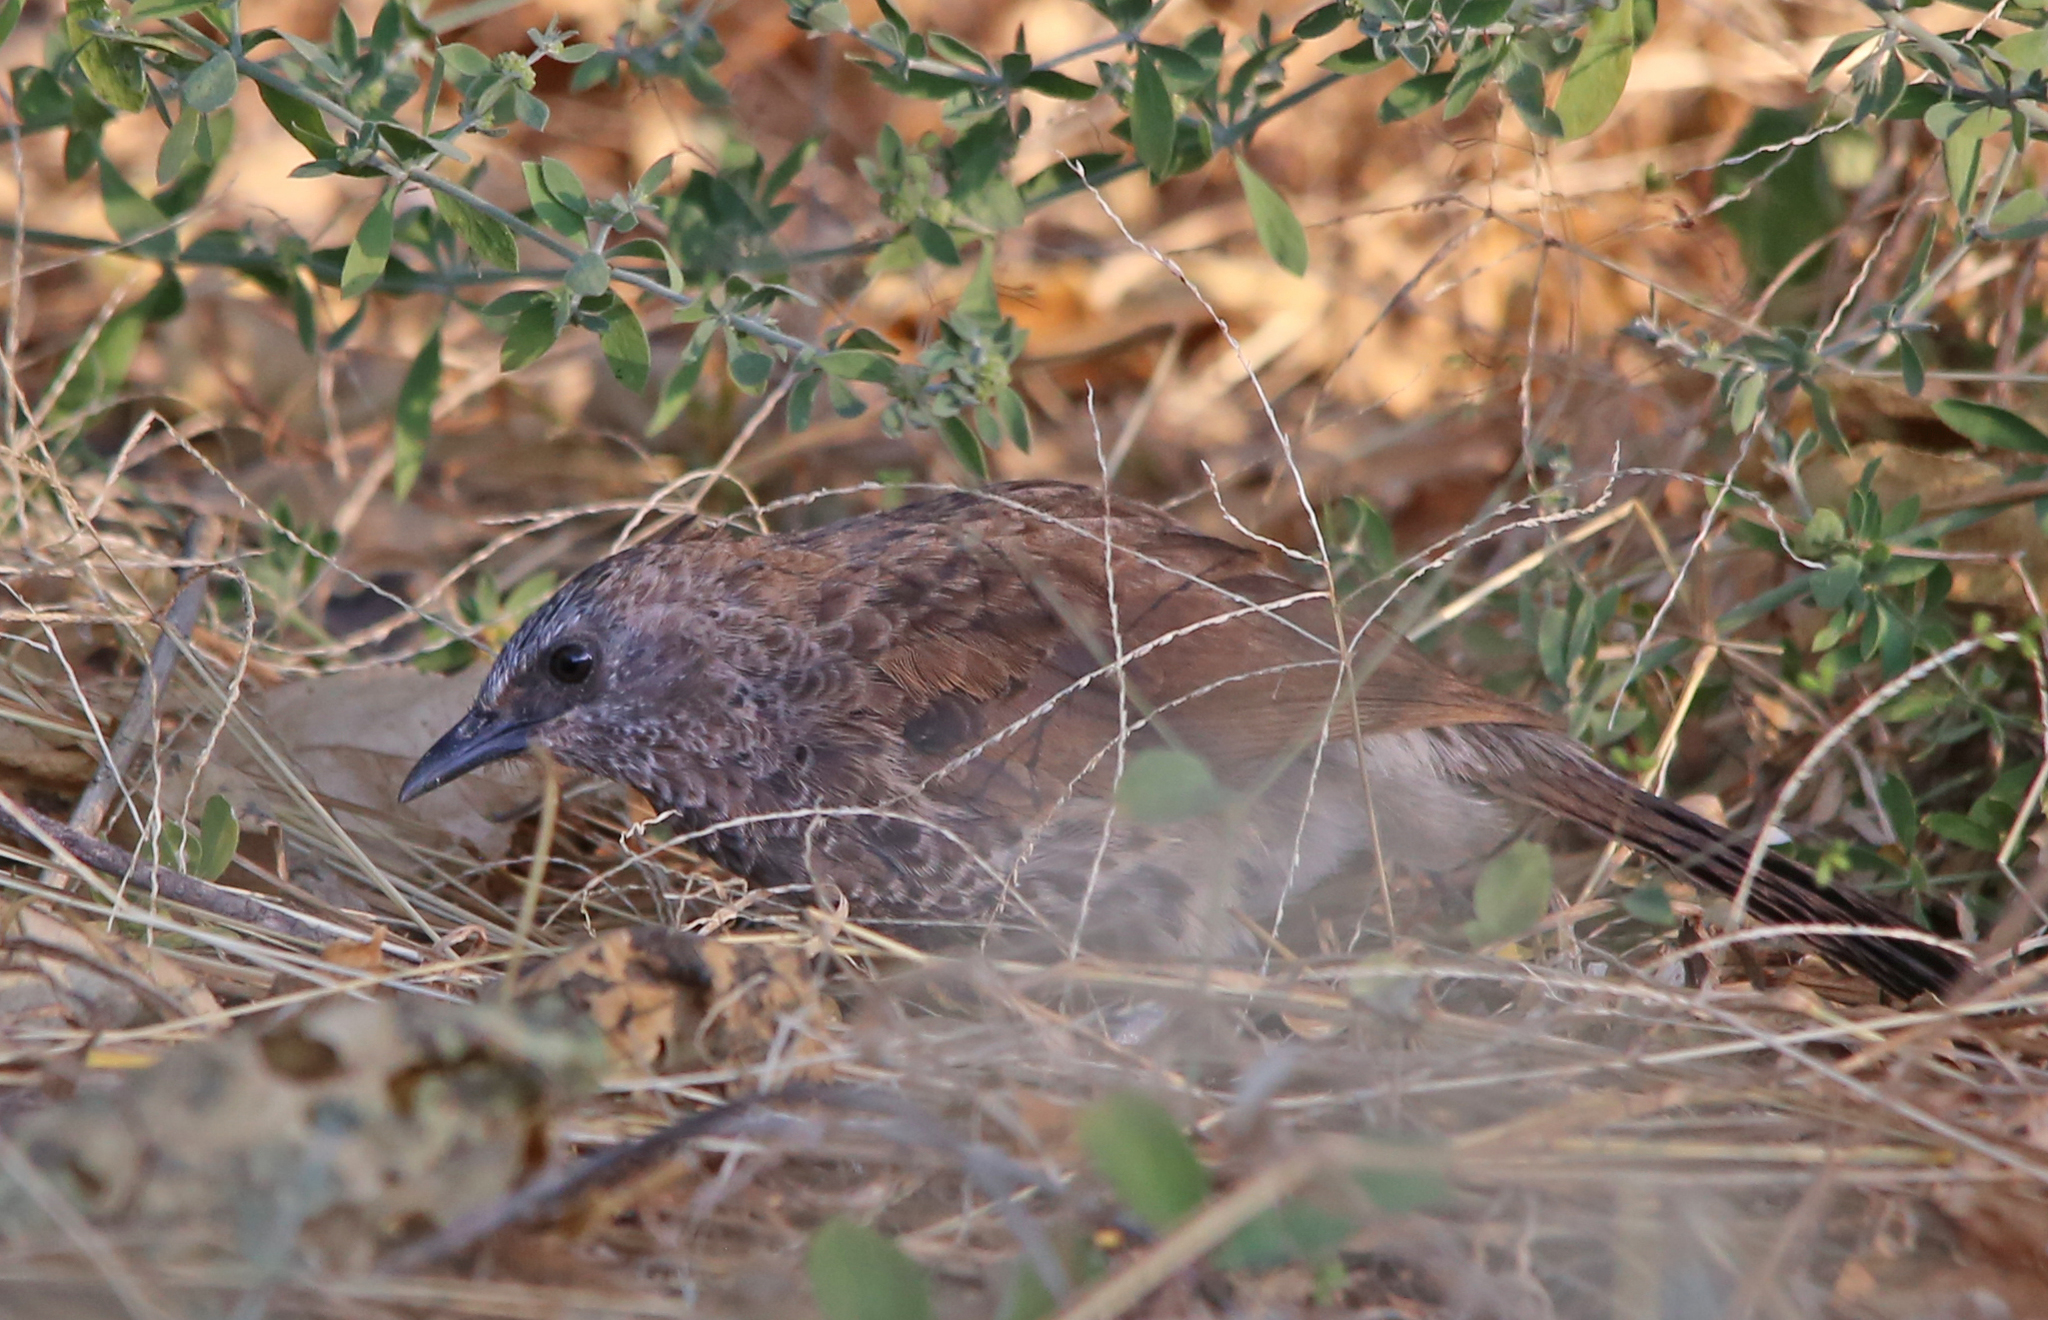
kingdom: Animalia
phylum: Chordata
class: Aves
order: Passeriformes
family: Leiothrichidae
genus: Turdoides
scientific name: Turdoides hartlaubii
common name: Hartlaub's babbler
